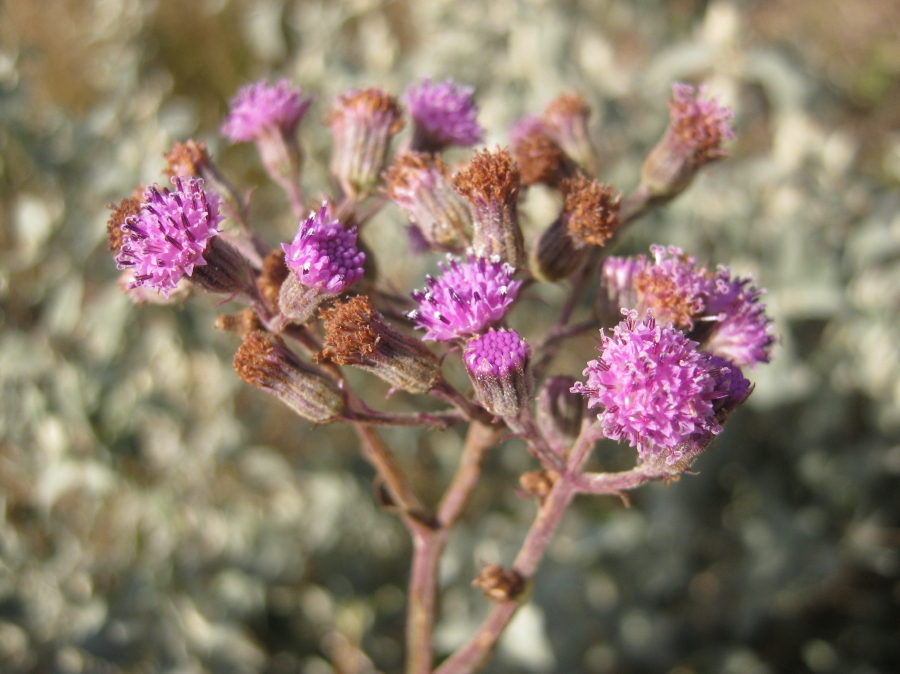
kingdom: Plantae
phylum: Tracheophyta
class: Magnoliopsida
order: Asterales
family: Asteraceae
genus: Senecio
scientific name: Senecio purpureus
